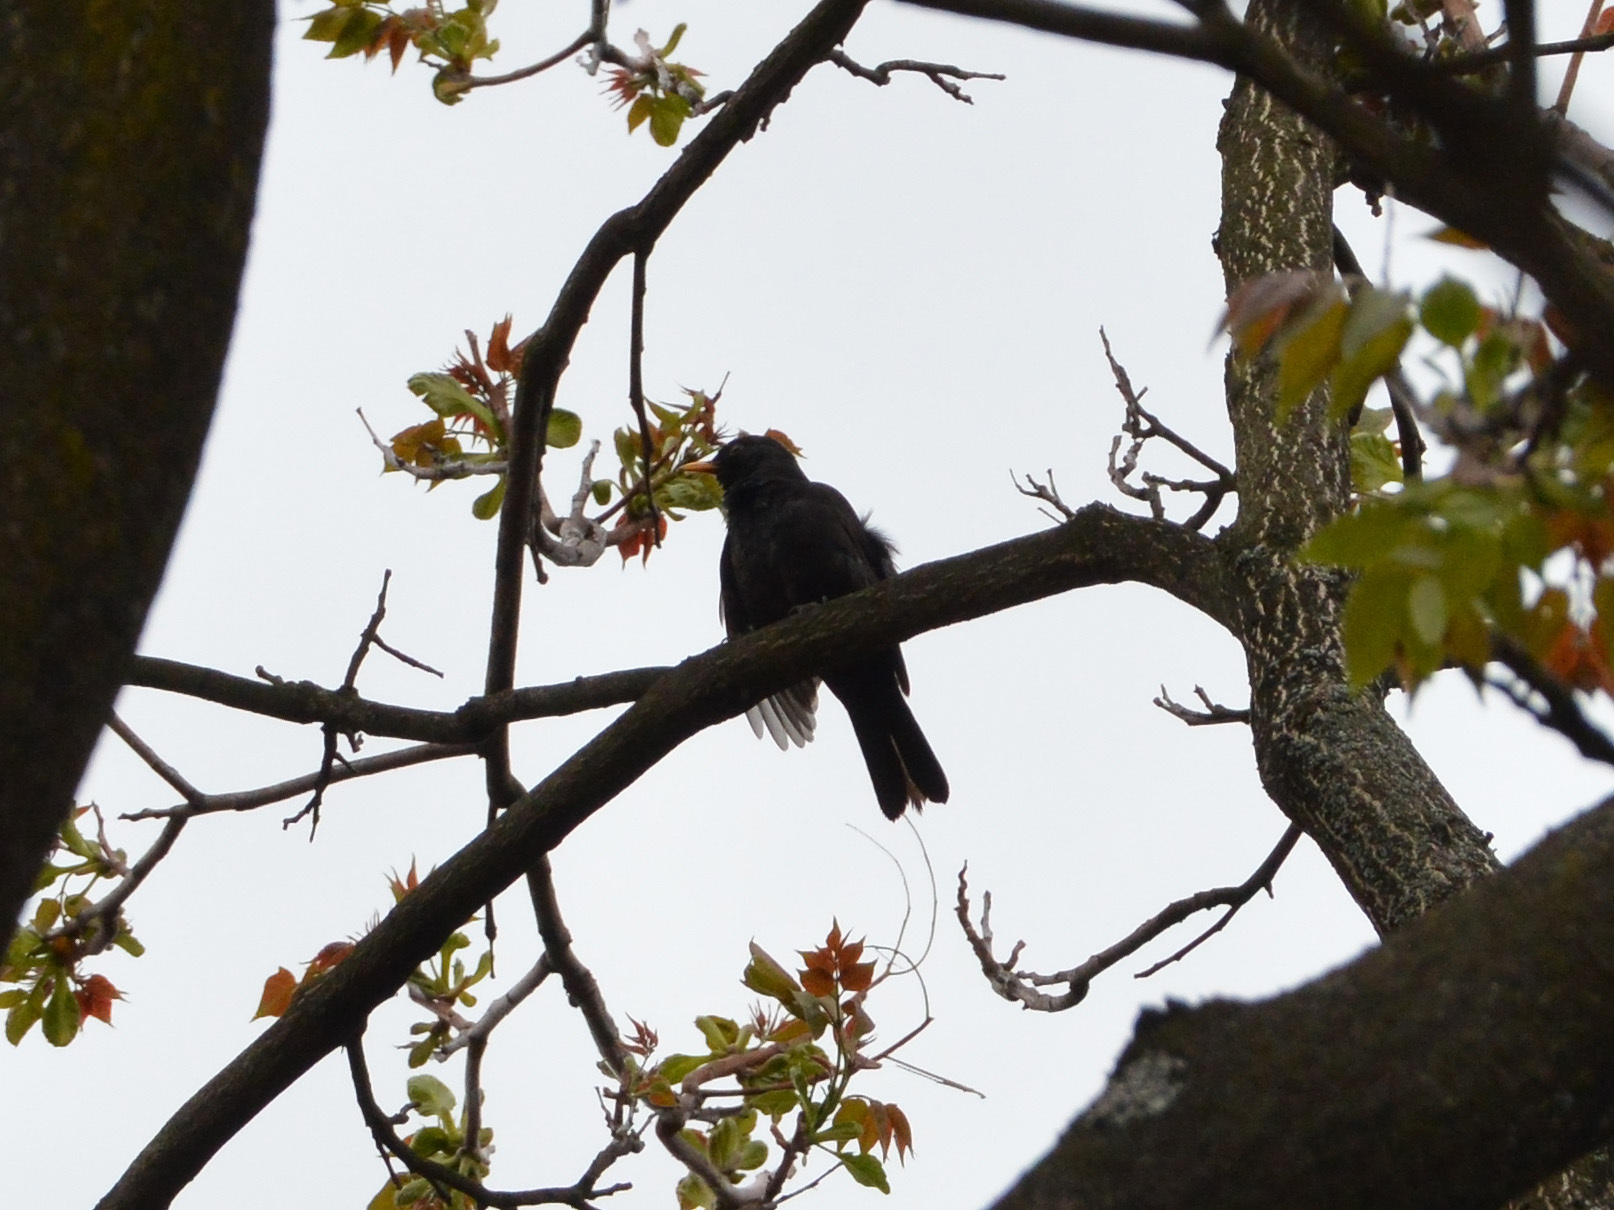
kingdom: Animalia
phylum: Chordata
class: Aves
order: Passeriformes
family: Turdidae
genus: Turdus
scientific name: Turdus merula
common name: Common blackbird
